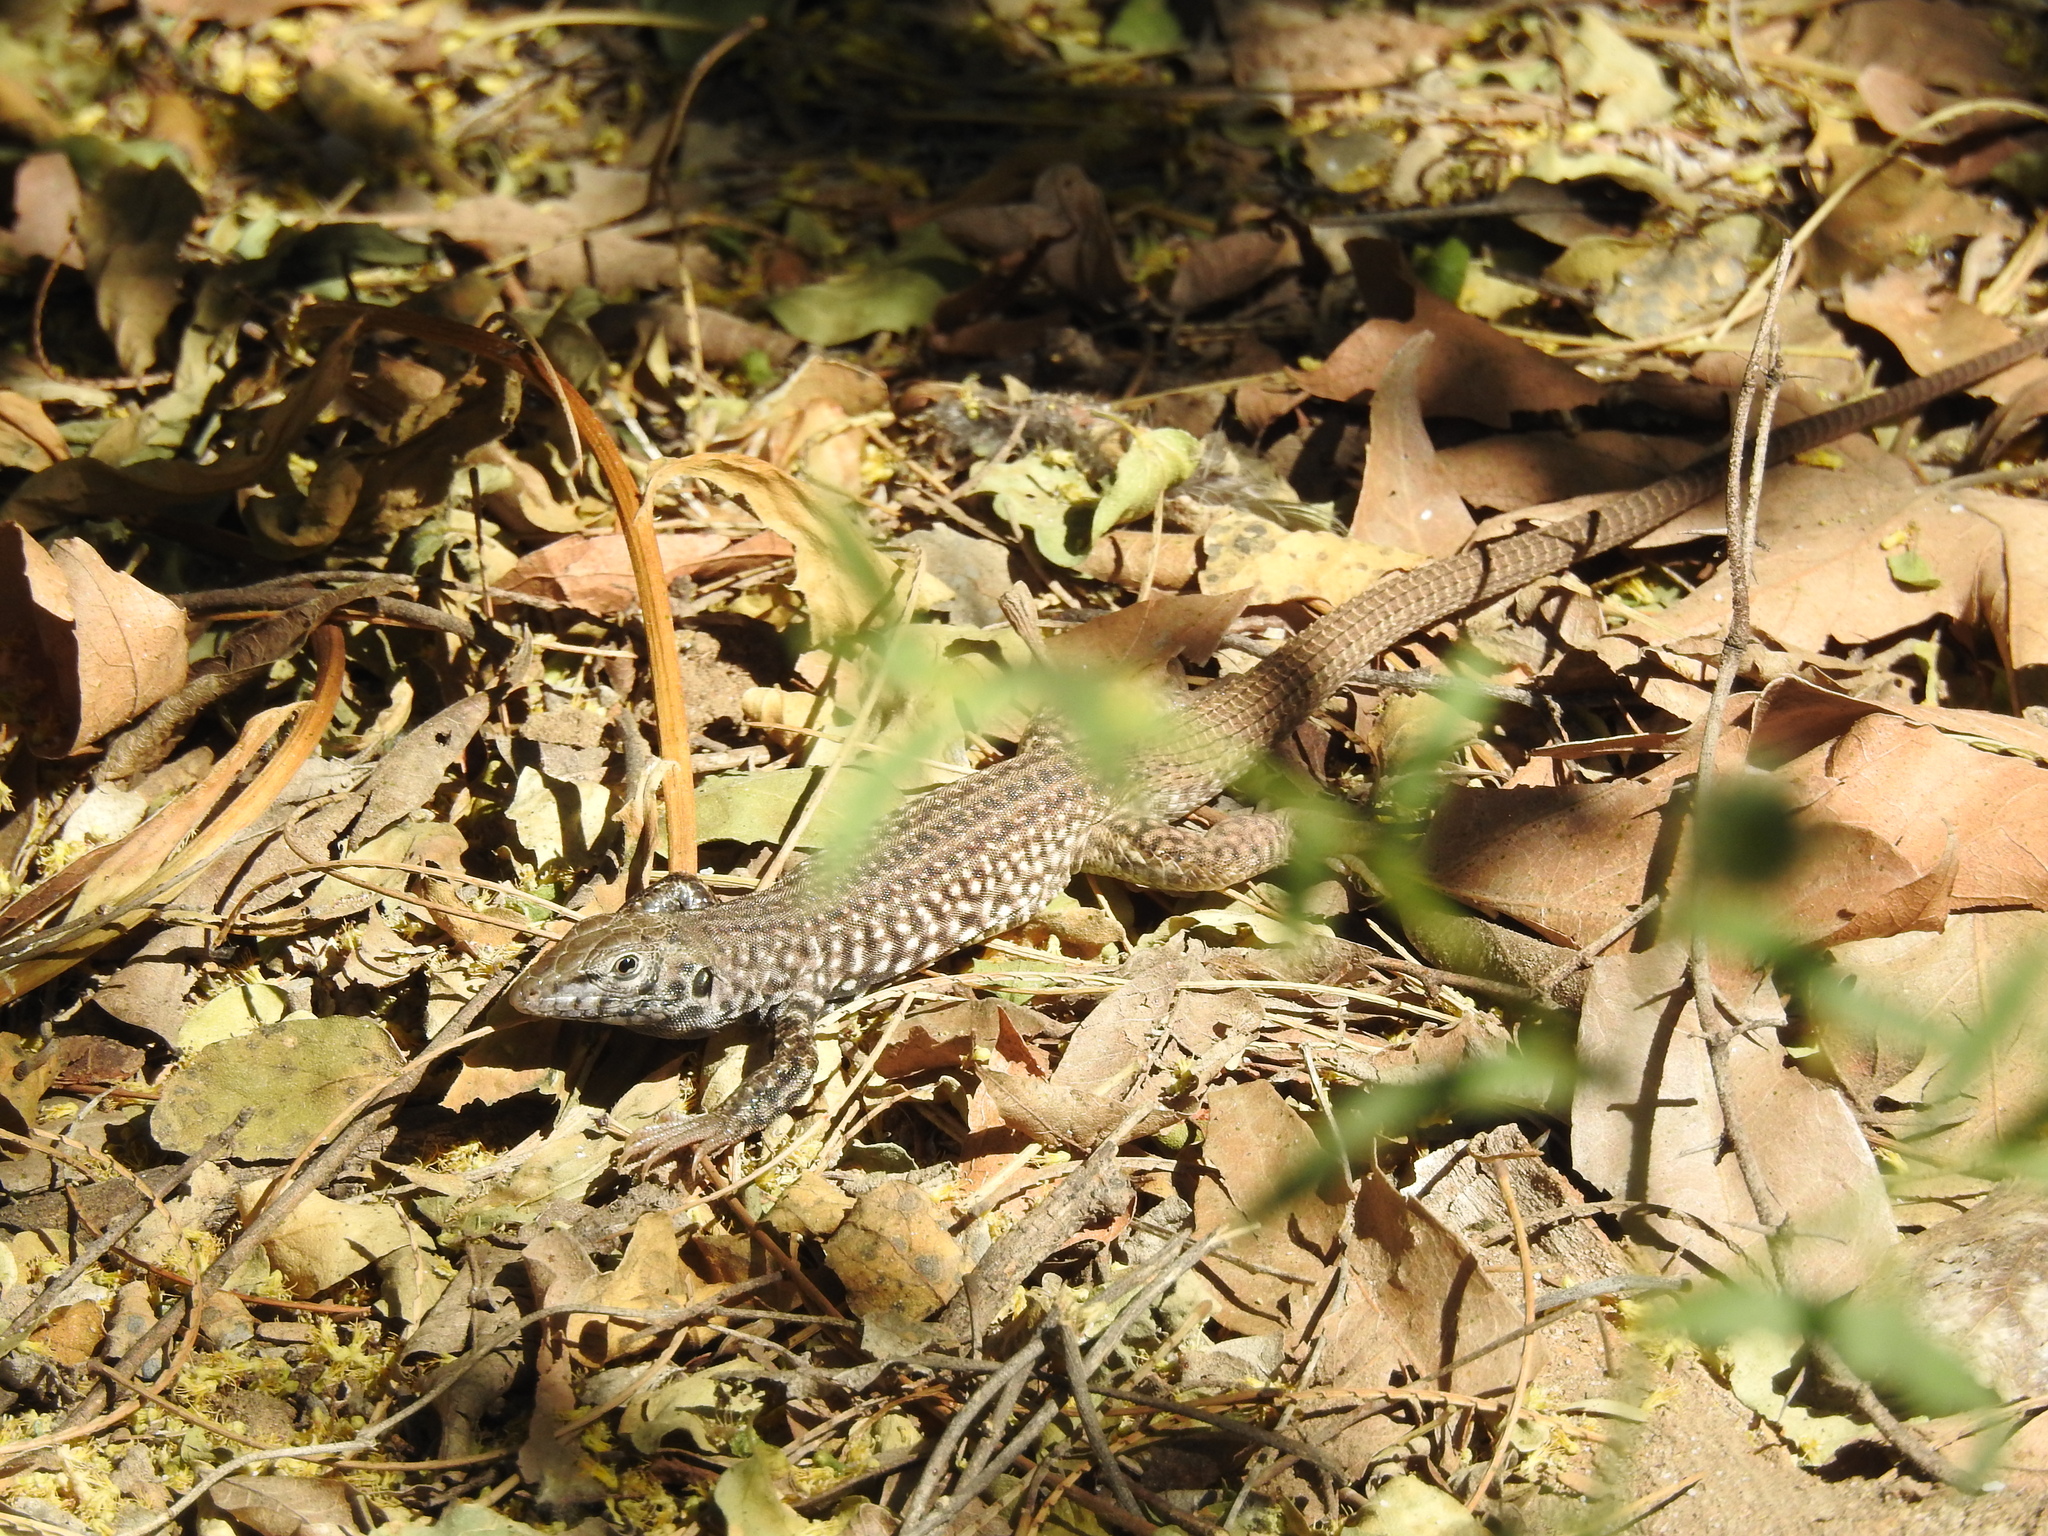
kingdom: Animalia
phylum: Chordata
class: Squamata
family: Teiidae
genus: Aspidoscelis
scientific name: Aspidoscelis tigris
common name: Tiger whiptail
